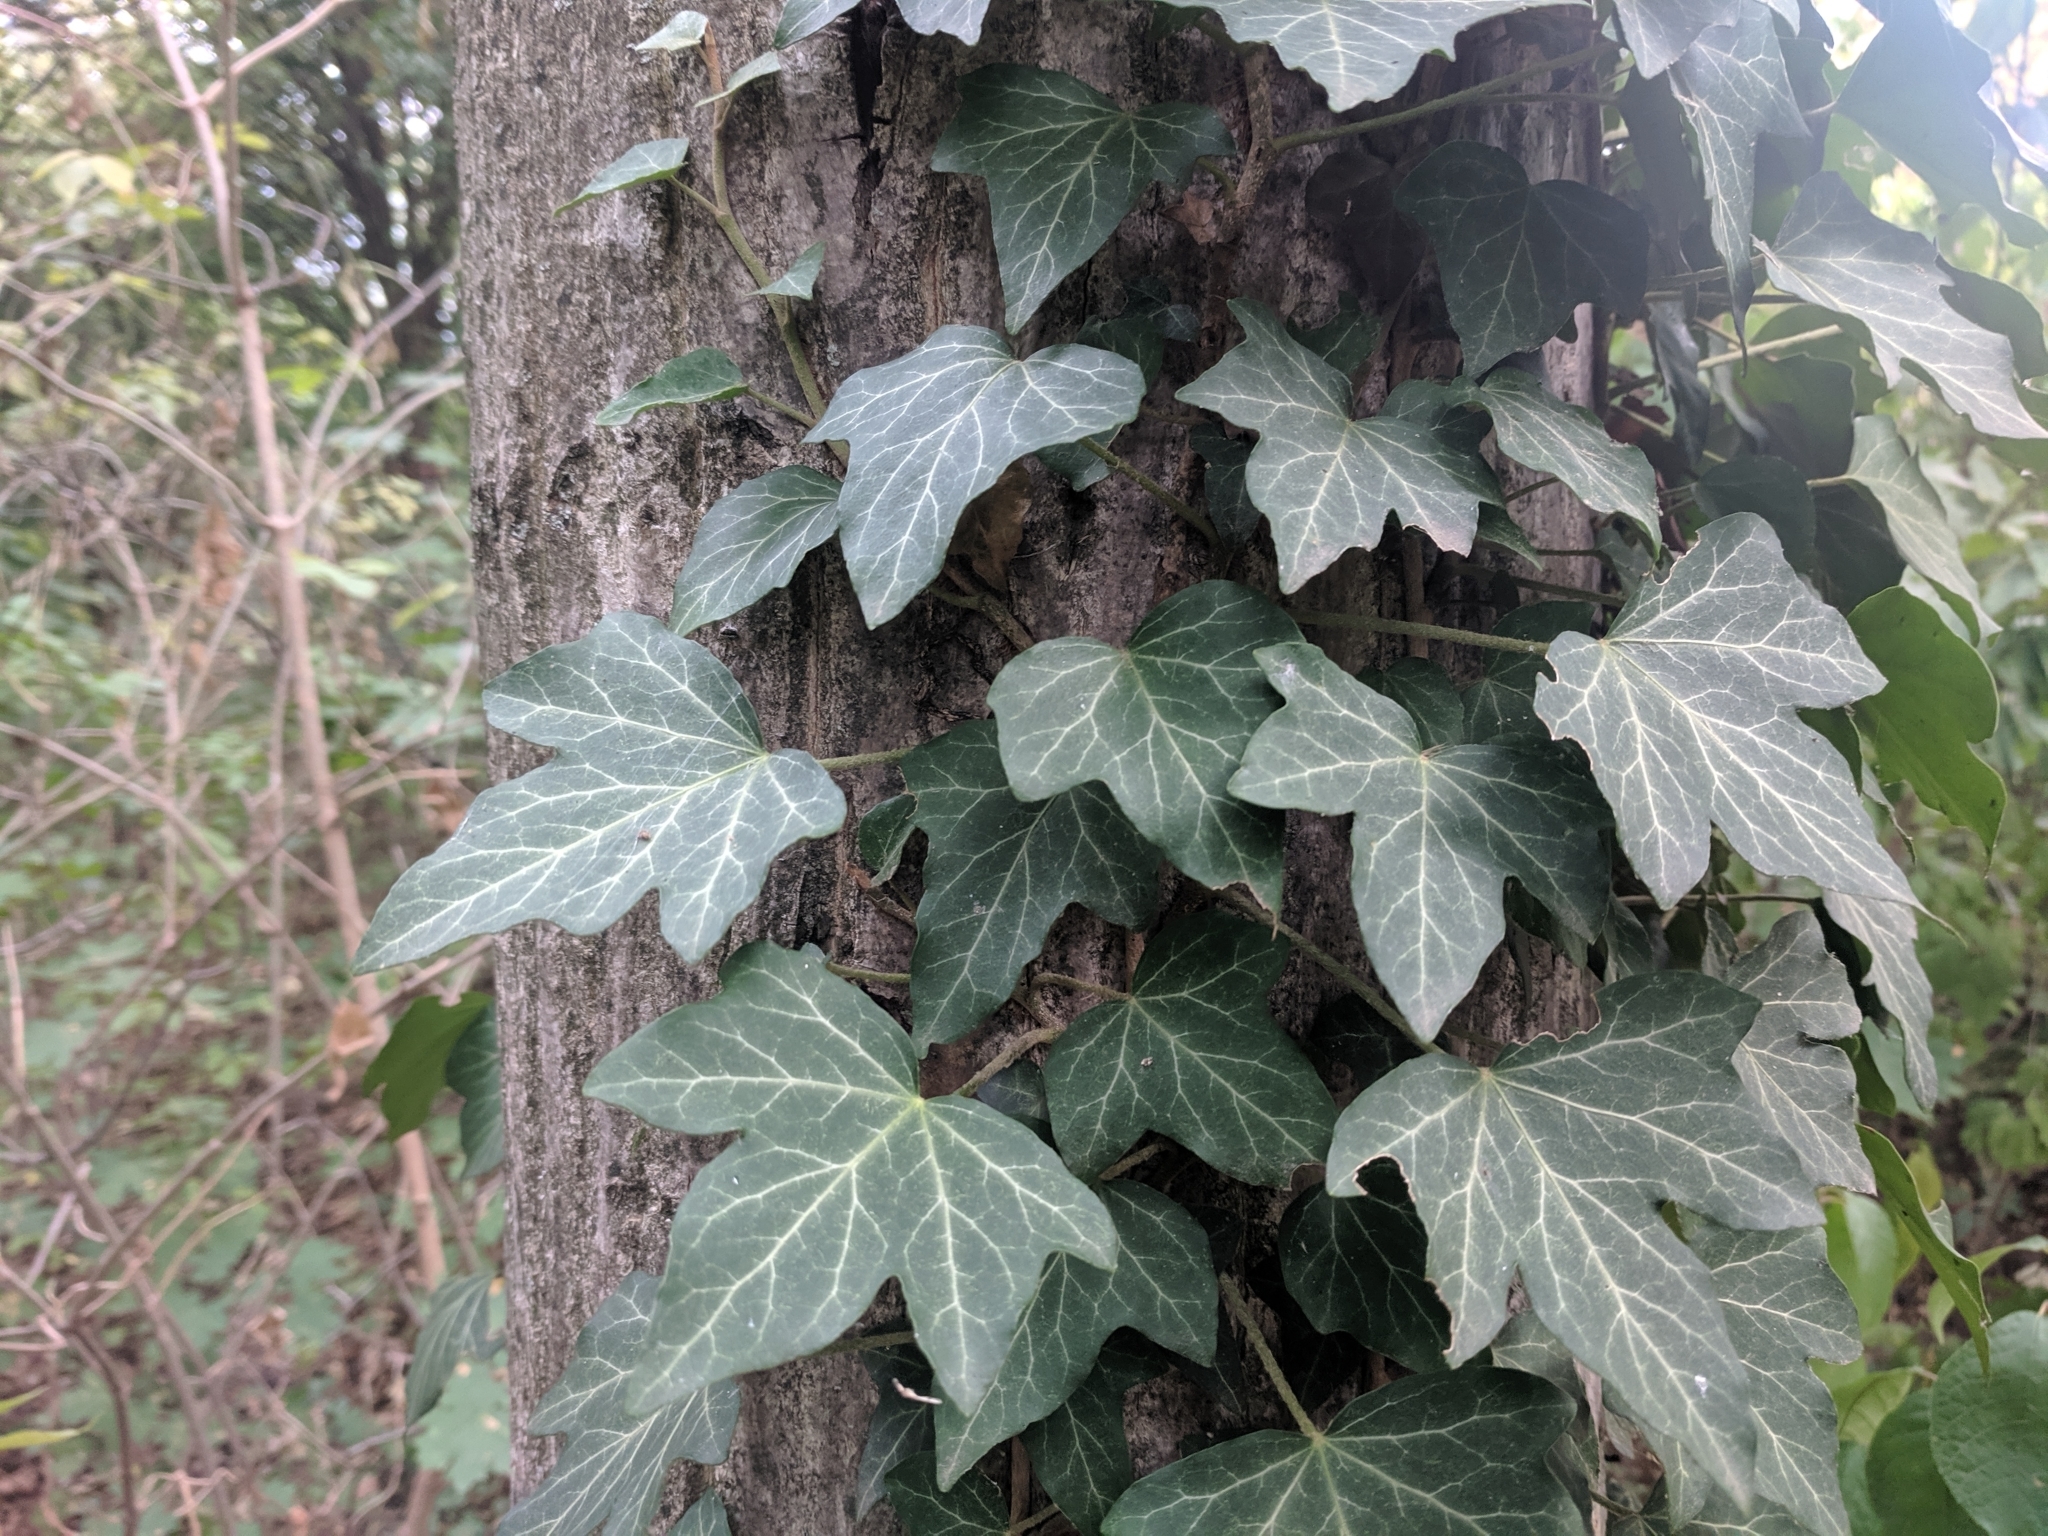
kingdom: Plantae
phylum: Tracheophyta
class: Magnoliopsida
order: Apiales
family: Araliaceae
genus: Hedera
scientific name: Hedera helix
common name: Ivy
